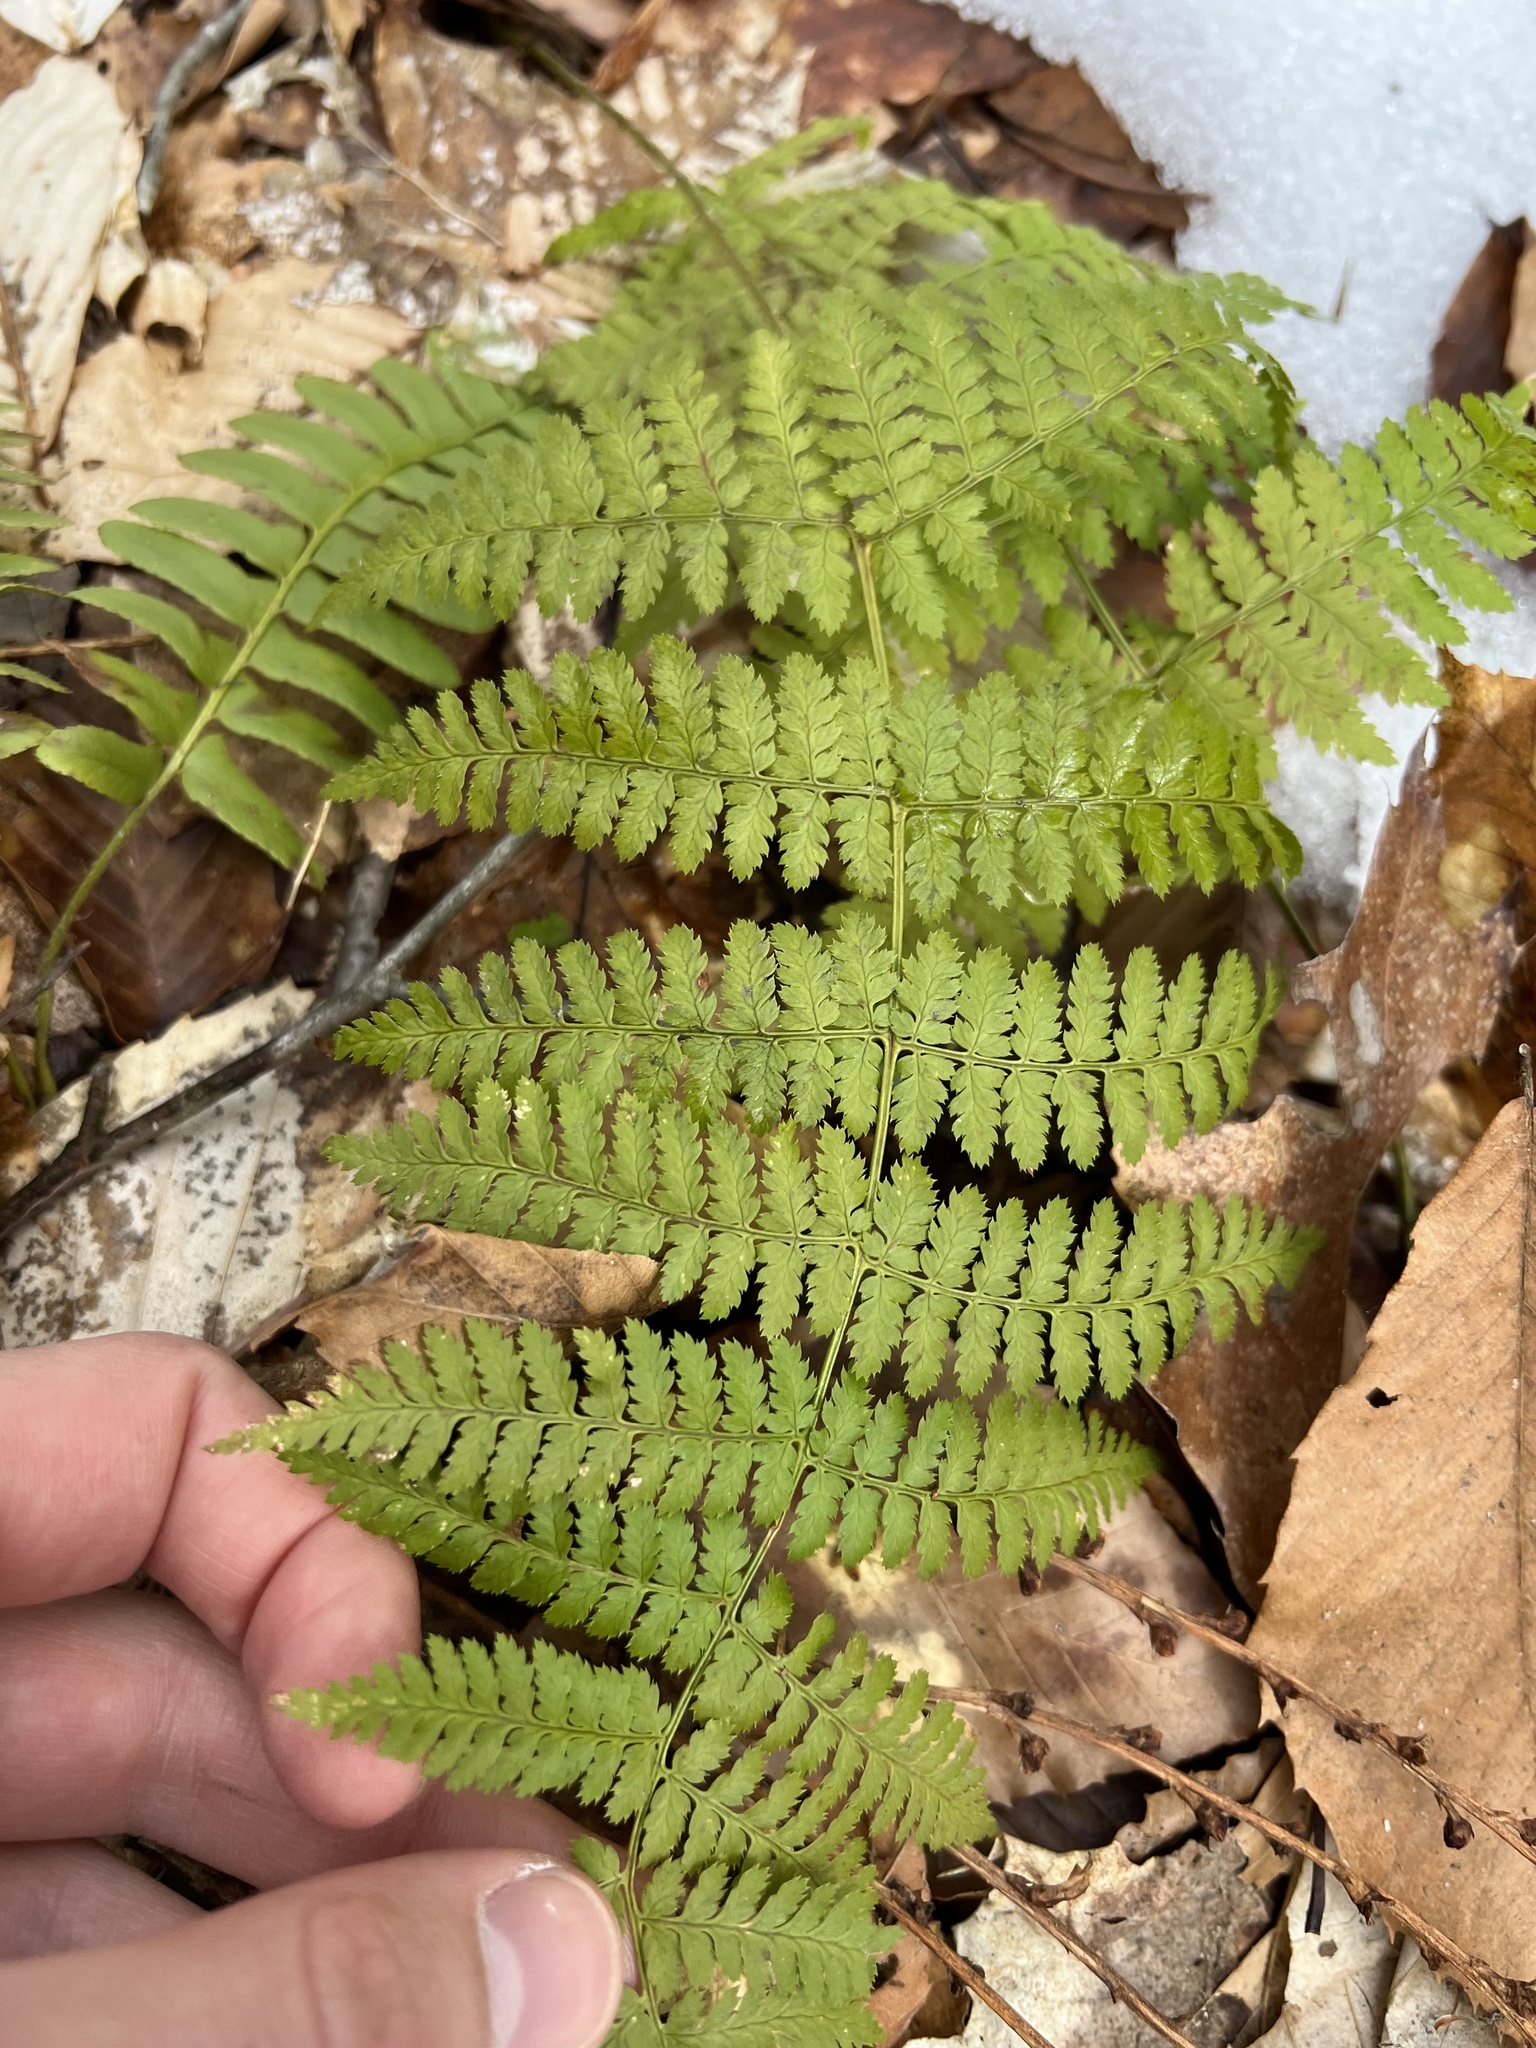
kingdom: Plantae
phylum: Tracheophyta
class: Polypodiopsida
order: Polypodiales
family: Dryopteridaceae
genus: Dryopteris
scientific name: Dryopteris intermedia
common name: Evergreen wood fern
